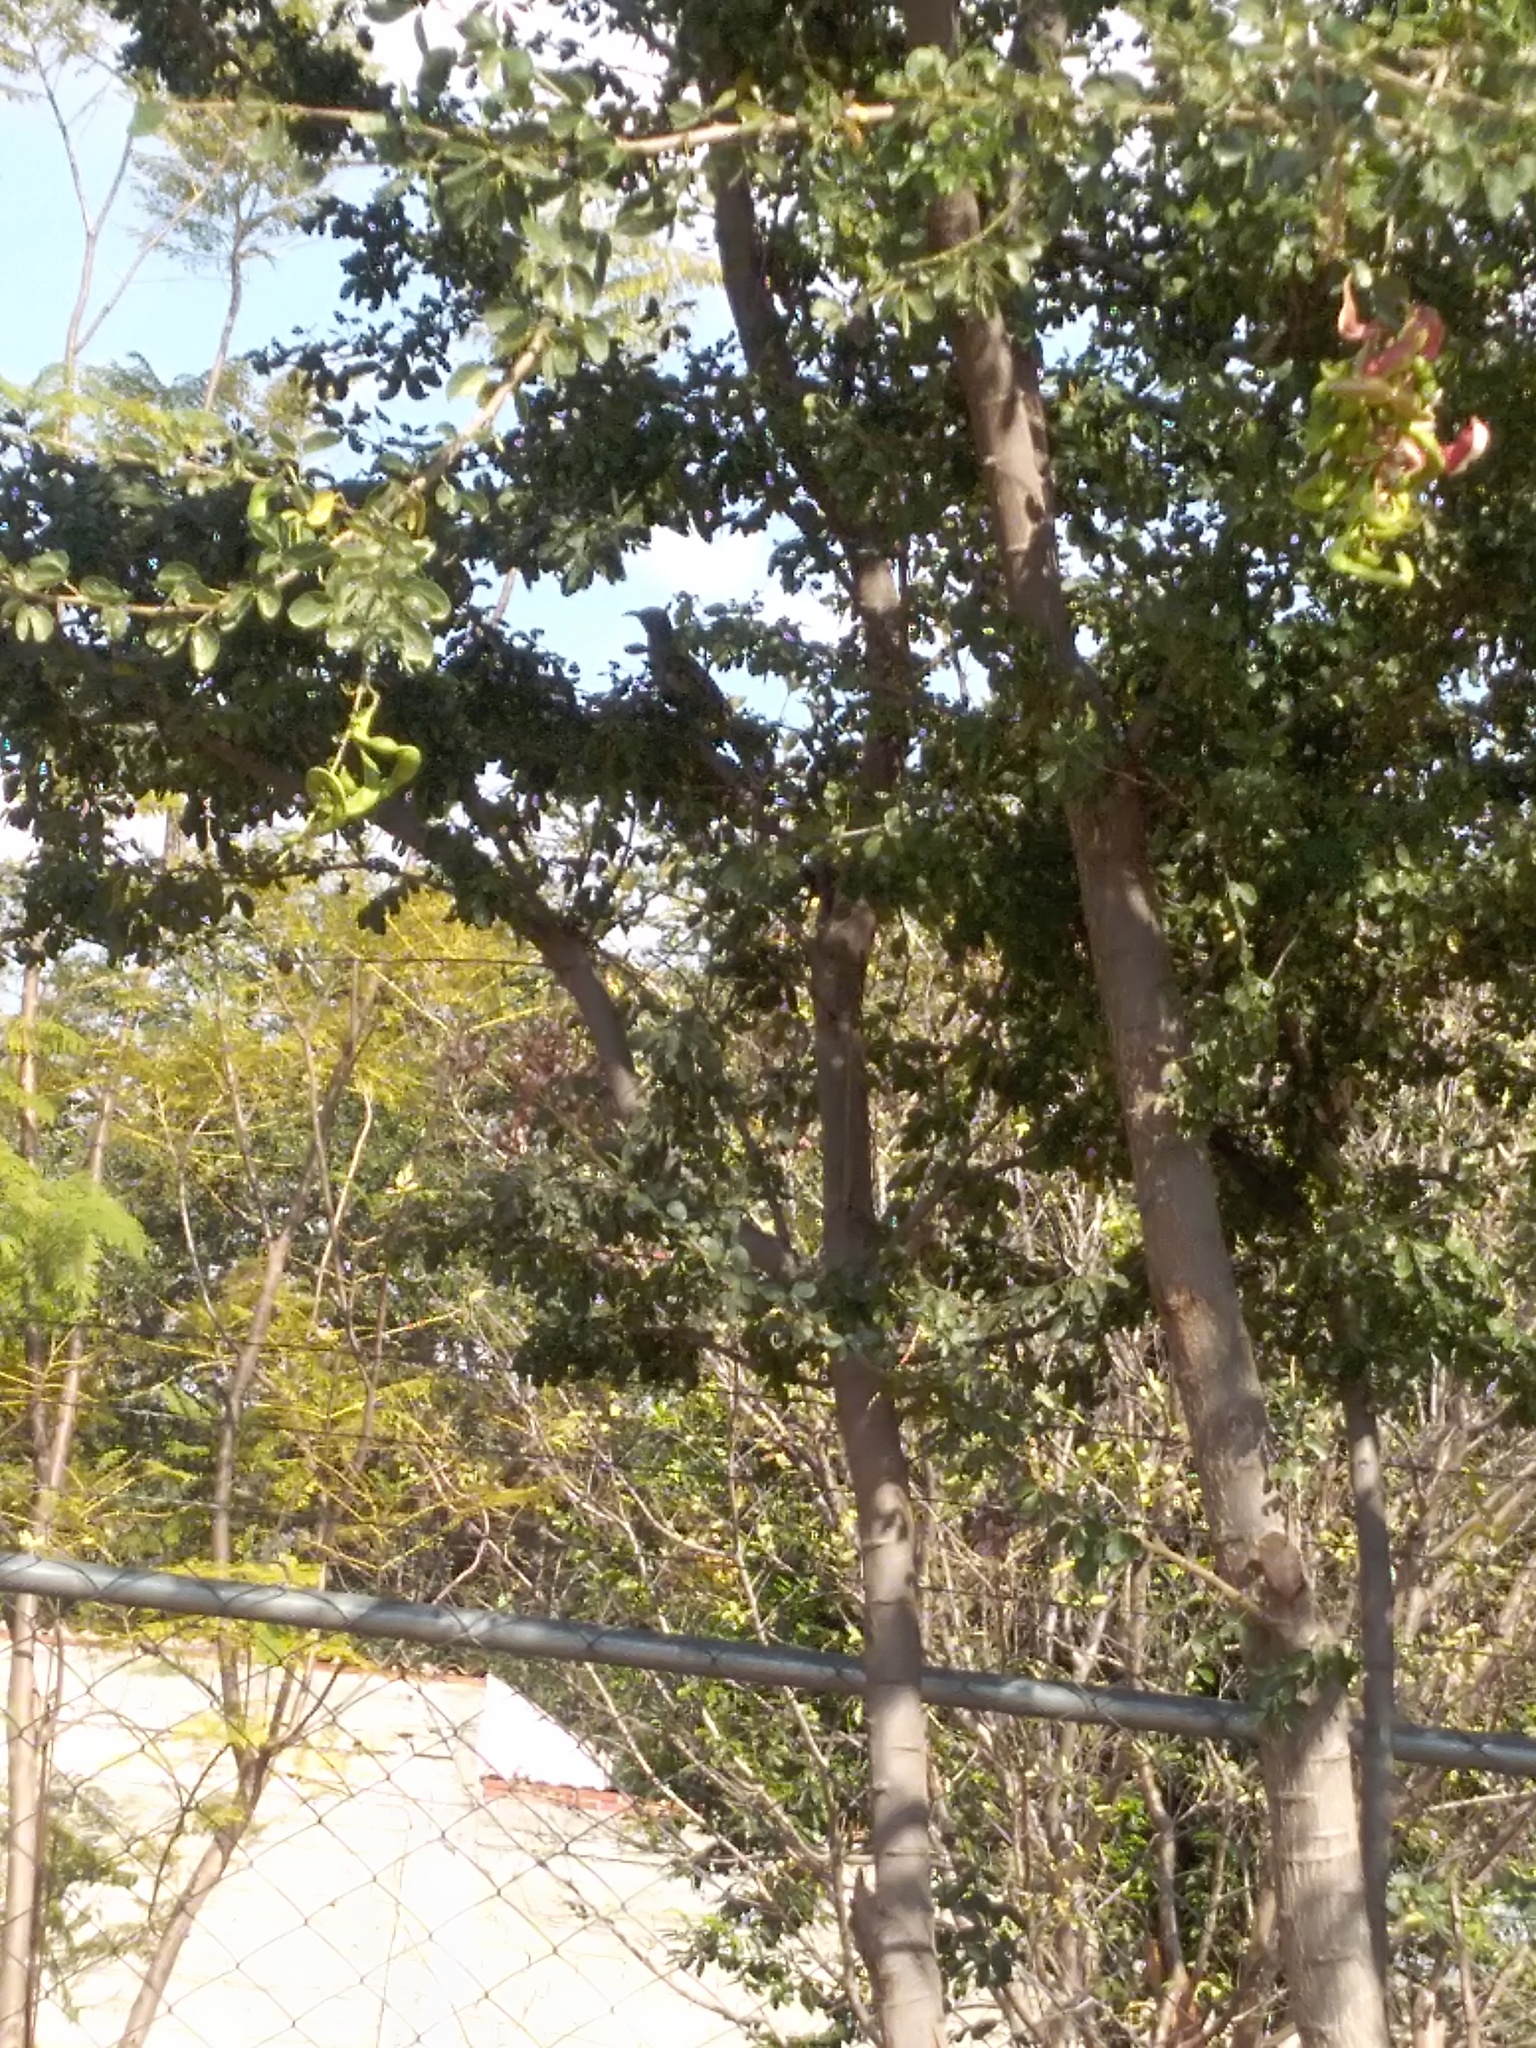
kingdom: Animalia
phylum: Chordata
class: Aves
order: Passeriformes
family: Mimidae
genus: Toxostoma
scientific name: Toxostoma curvirostre
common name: Curve-billed thrasher
